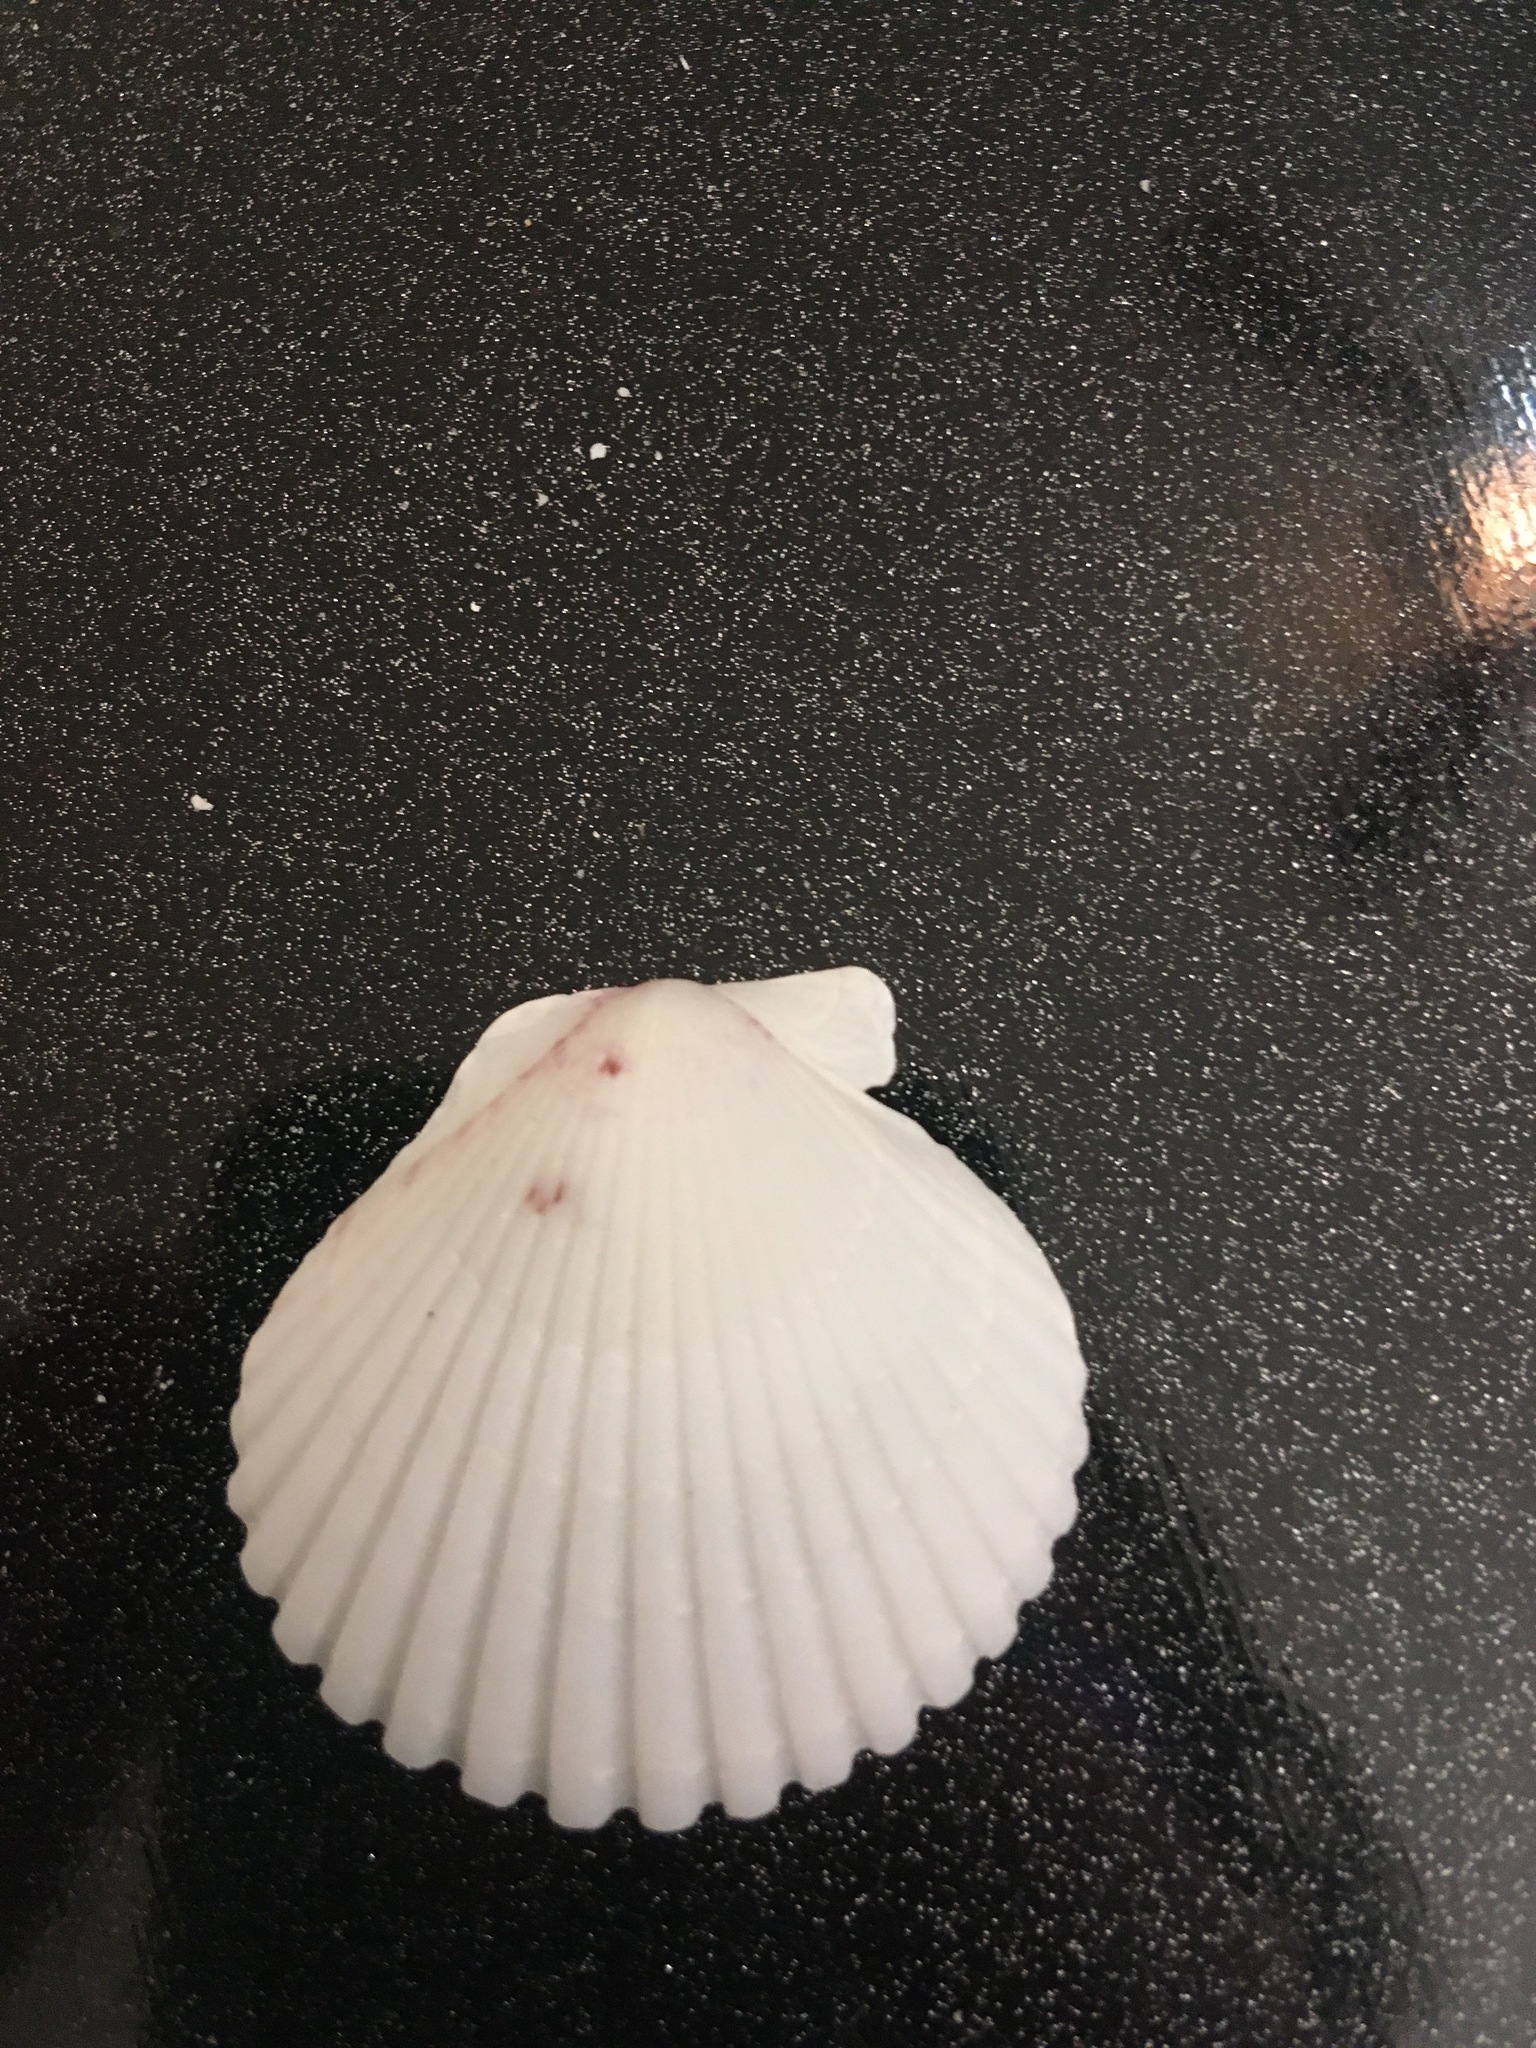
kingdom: Animalia
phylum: Mollusca
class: Bivalvia
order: Pectinida
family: Pectinidae
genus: Argopecten
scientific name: Argopecten gibbus
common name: Atlantic calico scallop
